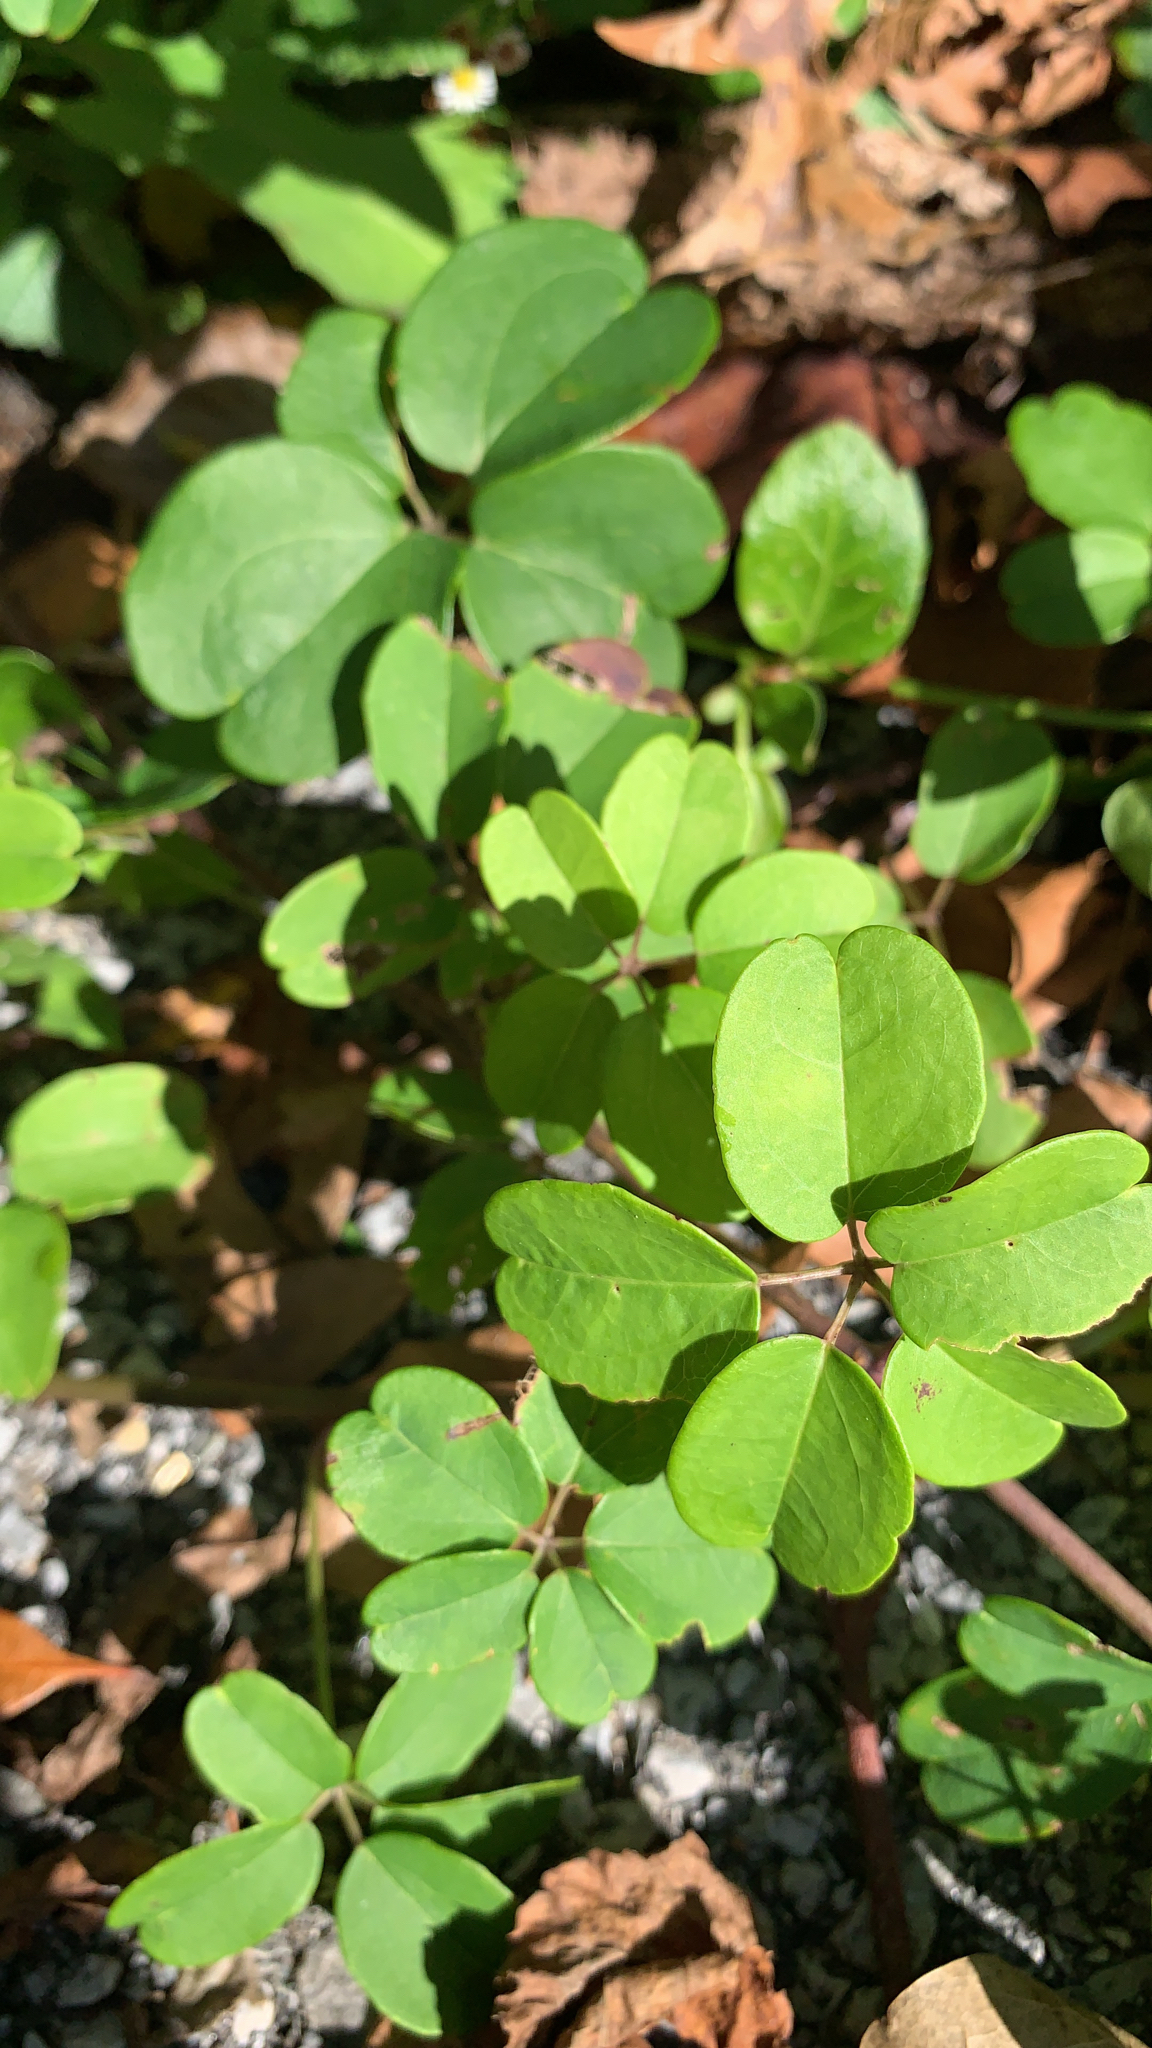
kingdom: Plantae
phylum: Tracheophyta
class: Magnoliopsida
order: Ranunculales
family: Lardizabalaceae
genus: Akebia
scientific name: Akebia quinata
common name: Five-leaf akebia
